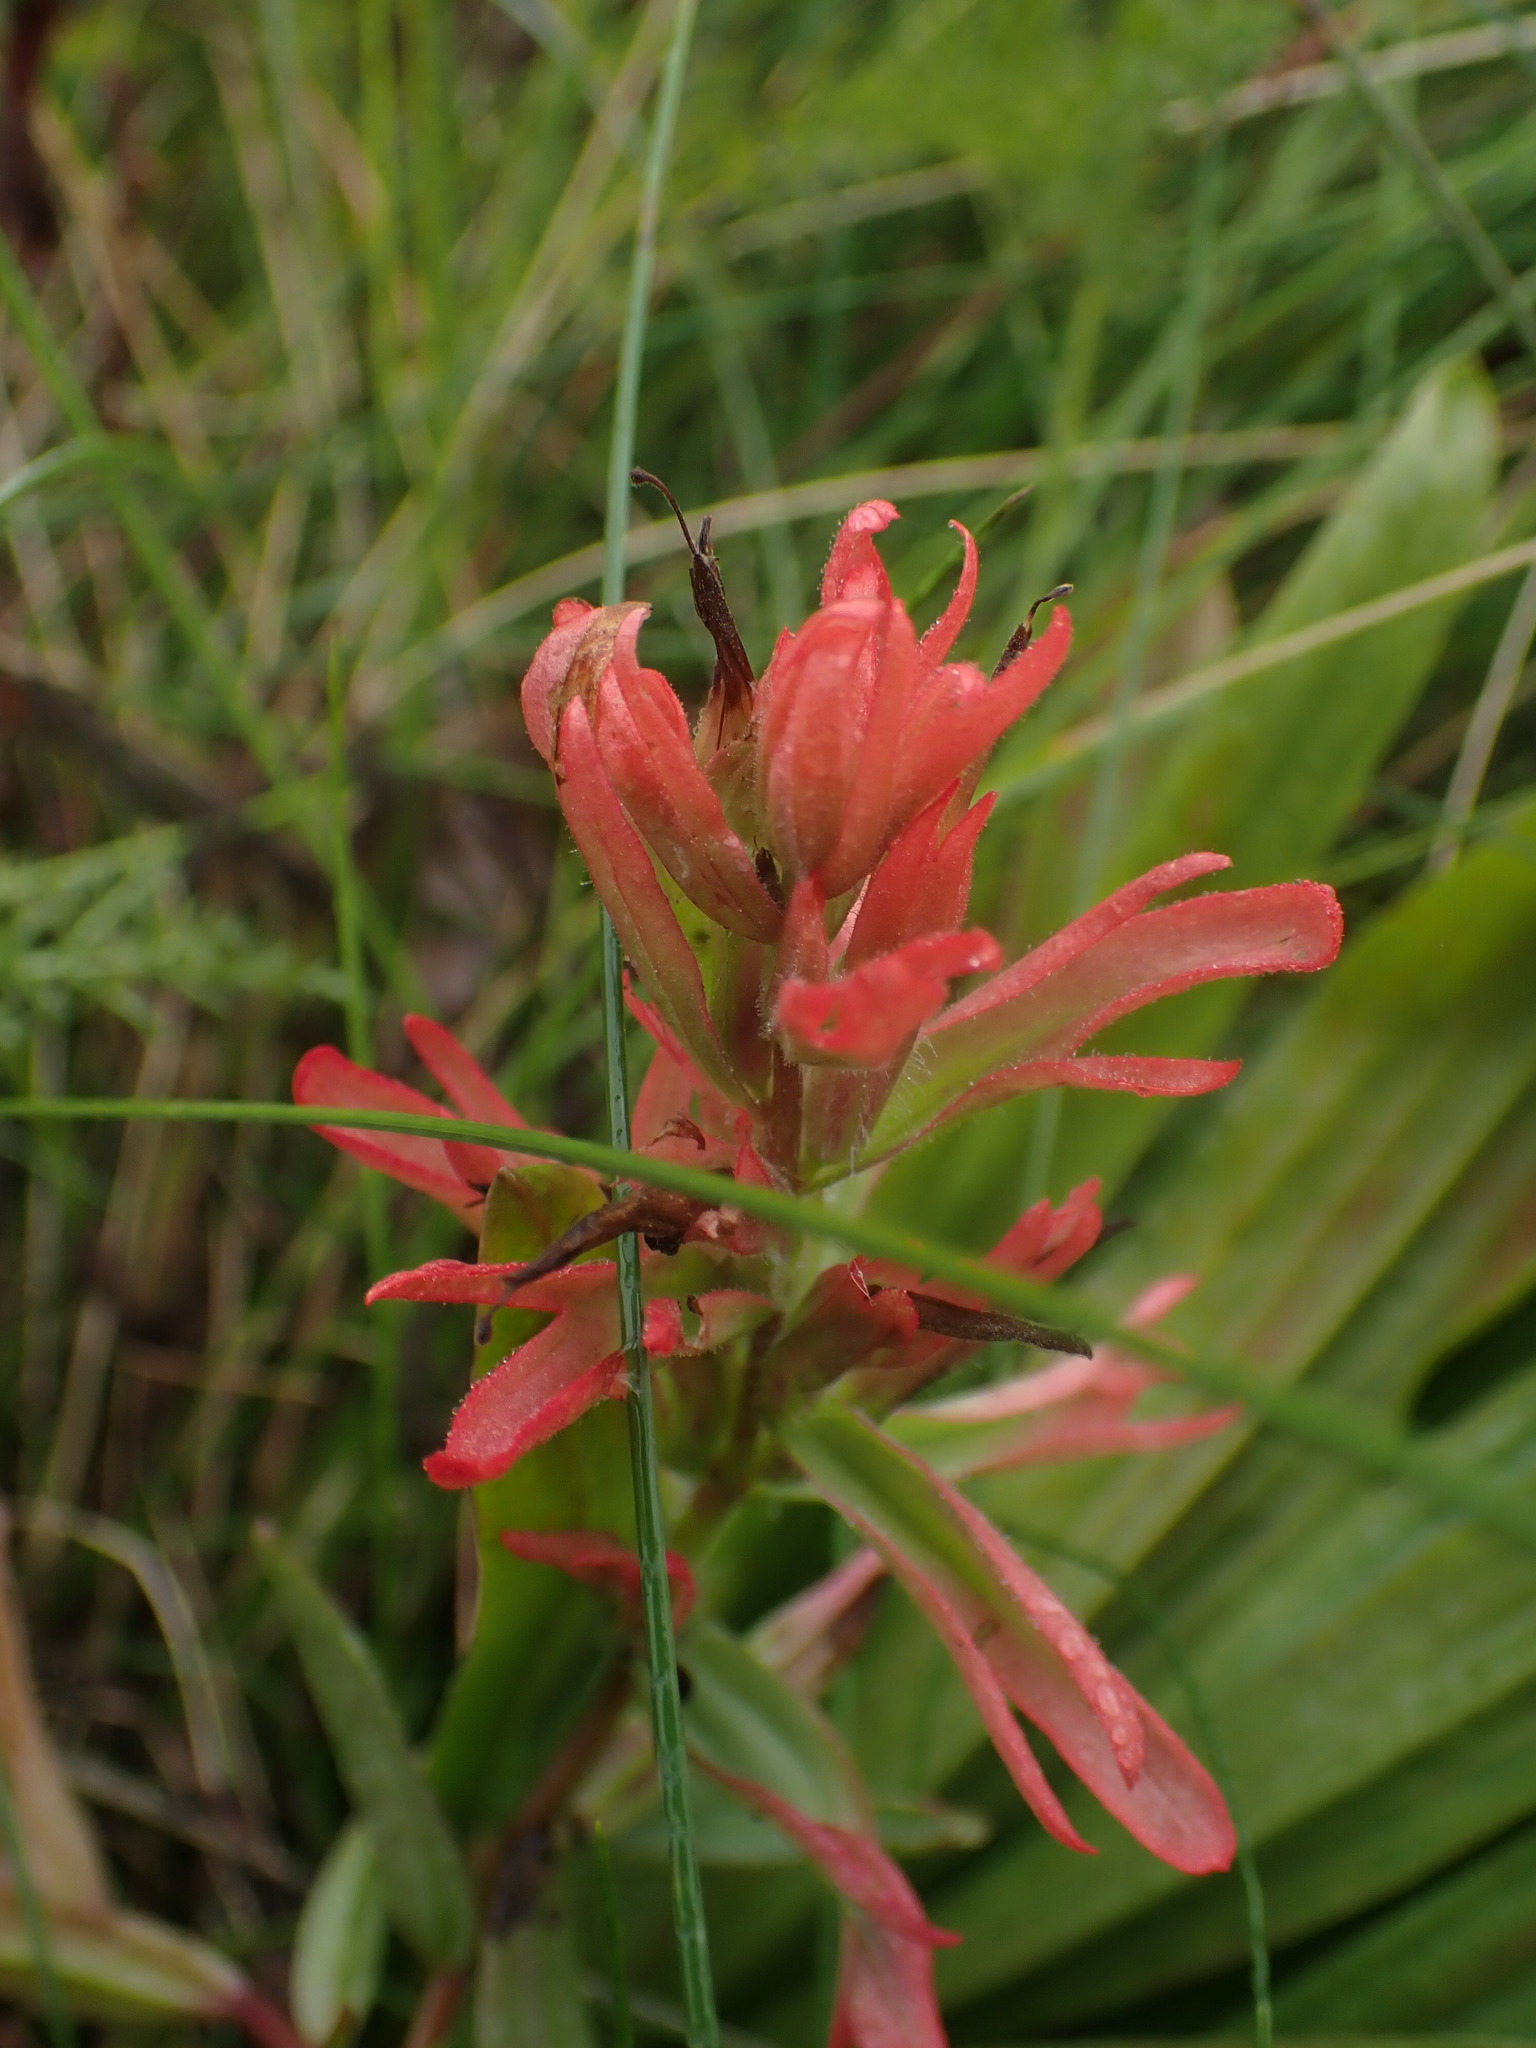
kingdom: Plantae
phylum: Tracheophyta
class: Magnoliopsida
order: Lamiales
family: Orobanchaceae
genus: Castilleja
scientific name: Castilleja miniata
